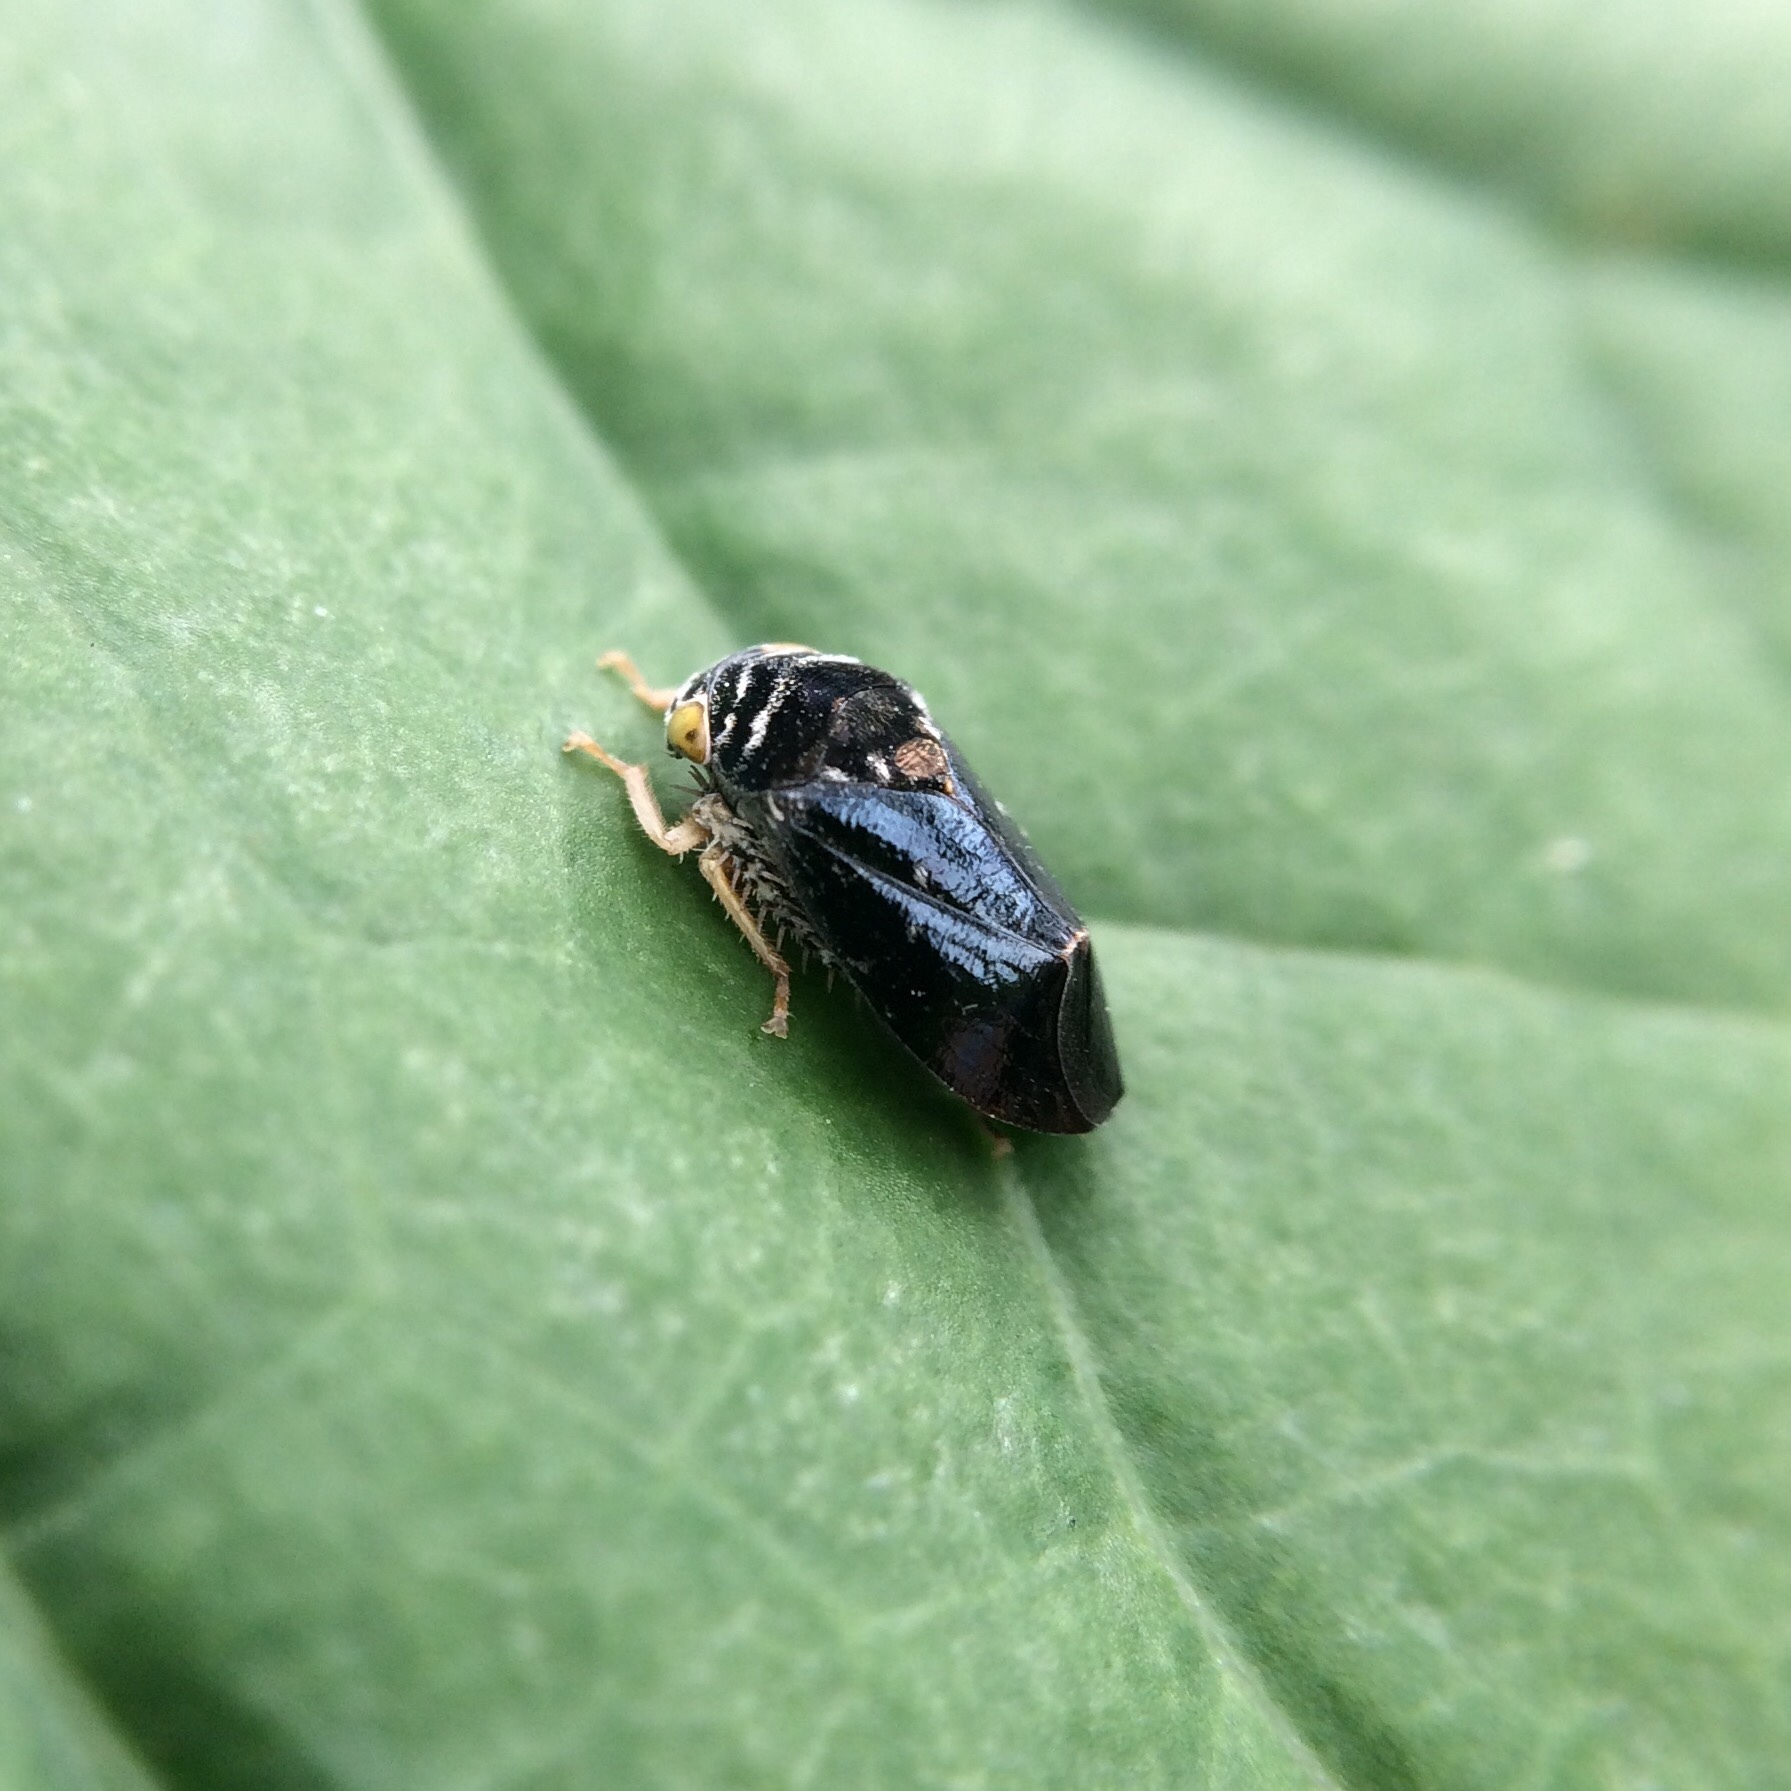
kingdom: Animalia
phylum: Arthropoda
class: Insecta
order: Hemiptera
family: Cicadellidae
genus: Penthimia
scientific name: Penthimia nitens
